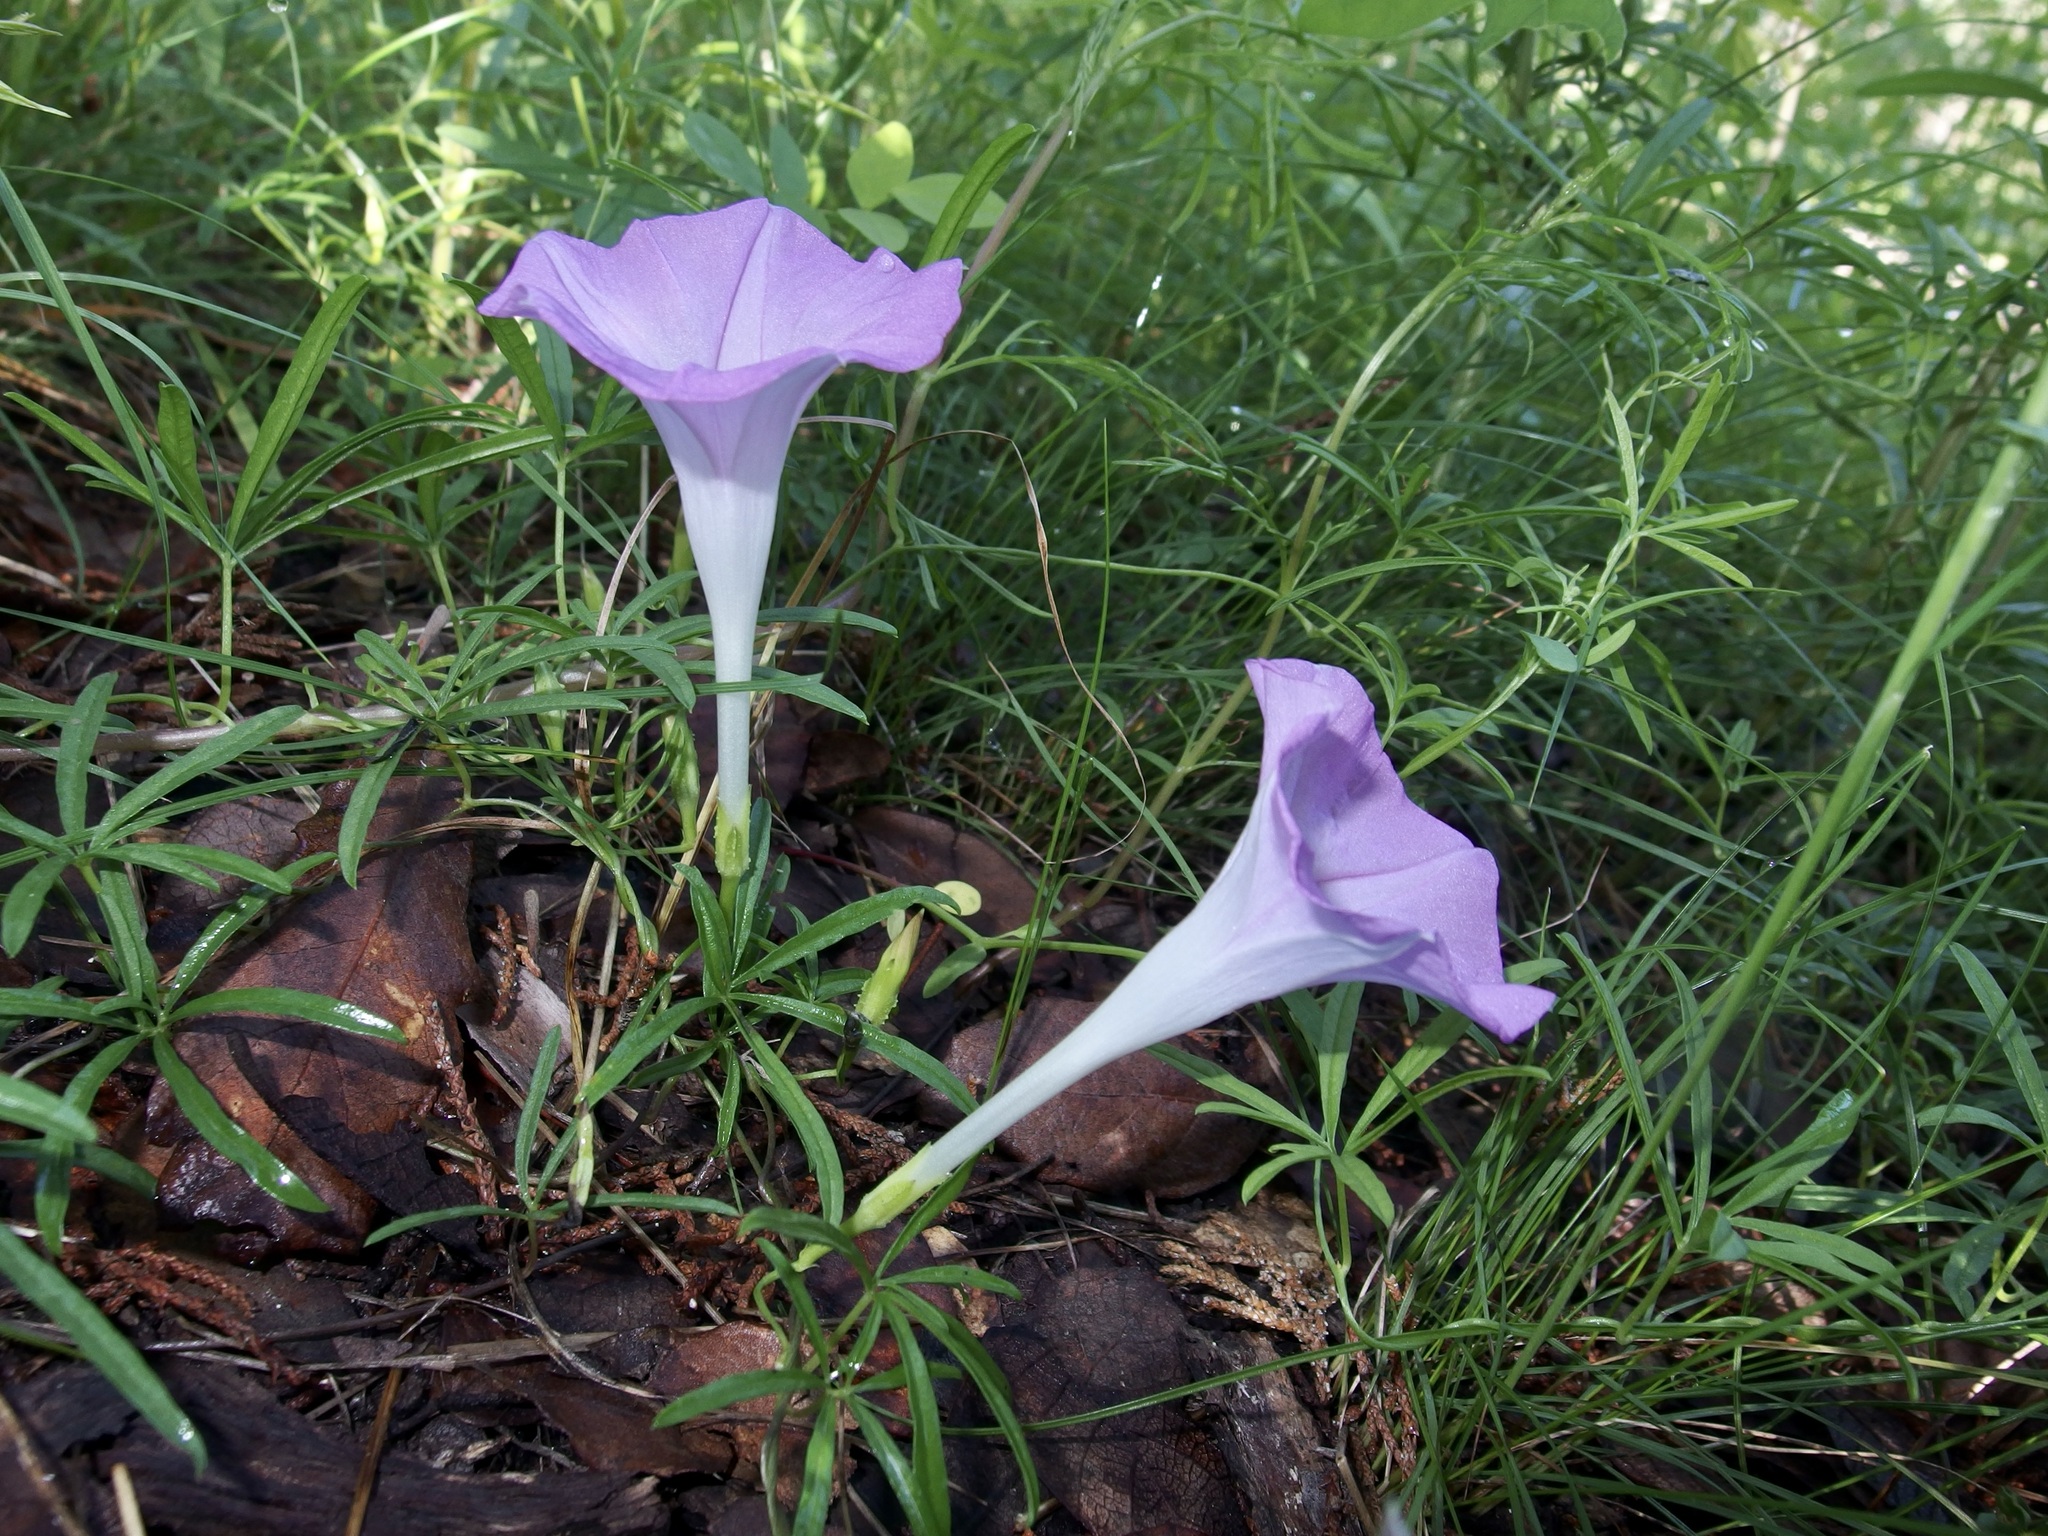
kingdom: Plantae
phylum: Tracheophyta
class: Magnoliopsida
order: Solanales
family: Convolvulaceae
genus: Ipomoea
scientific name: Ipomoea tenuiloba
